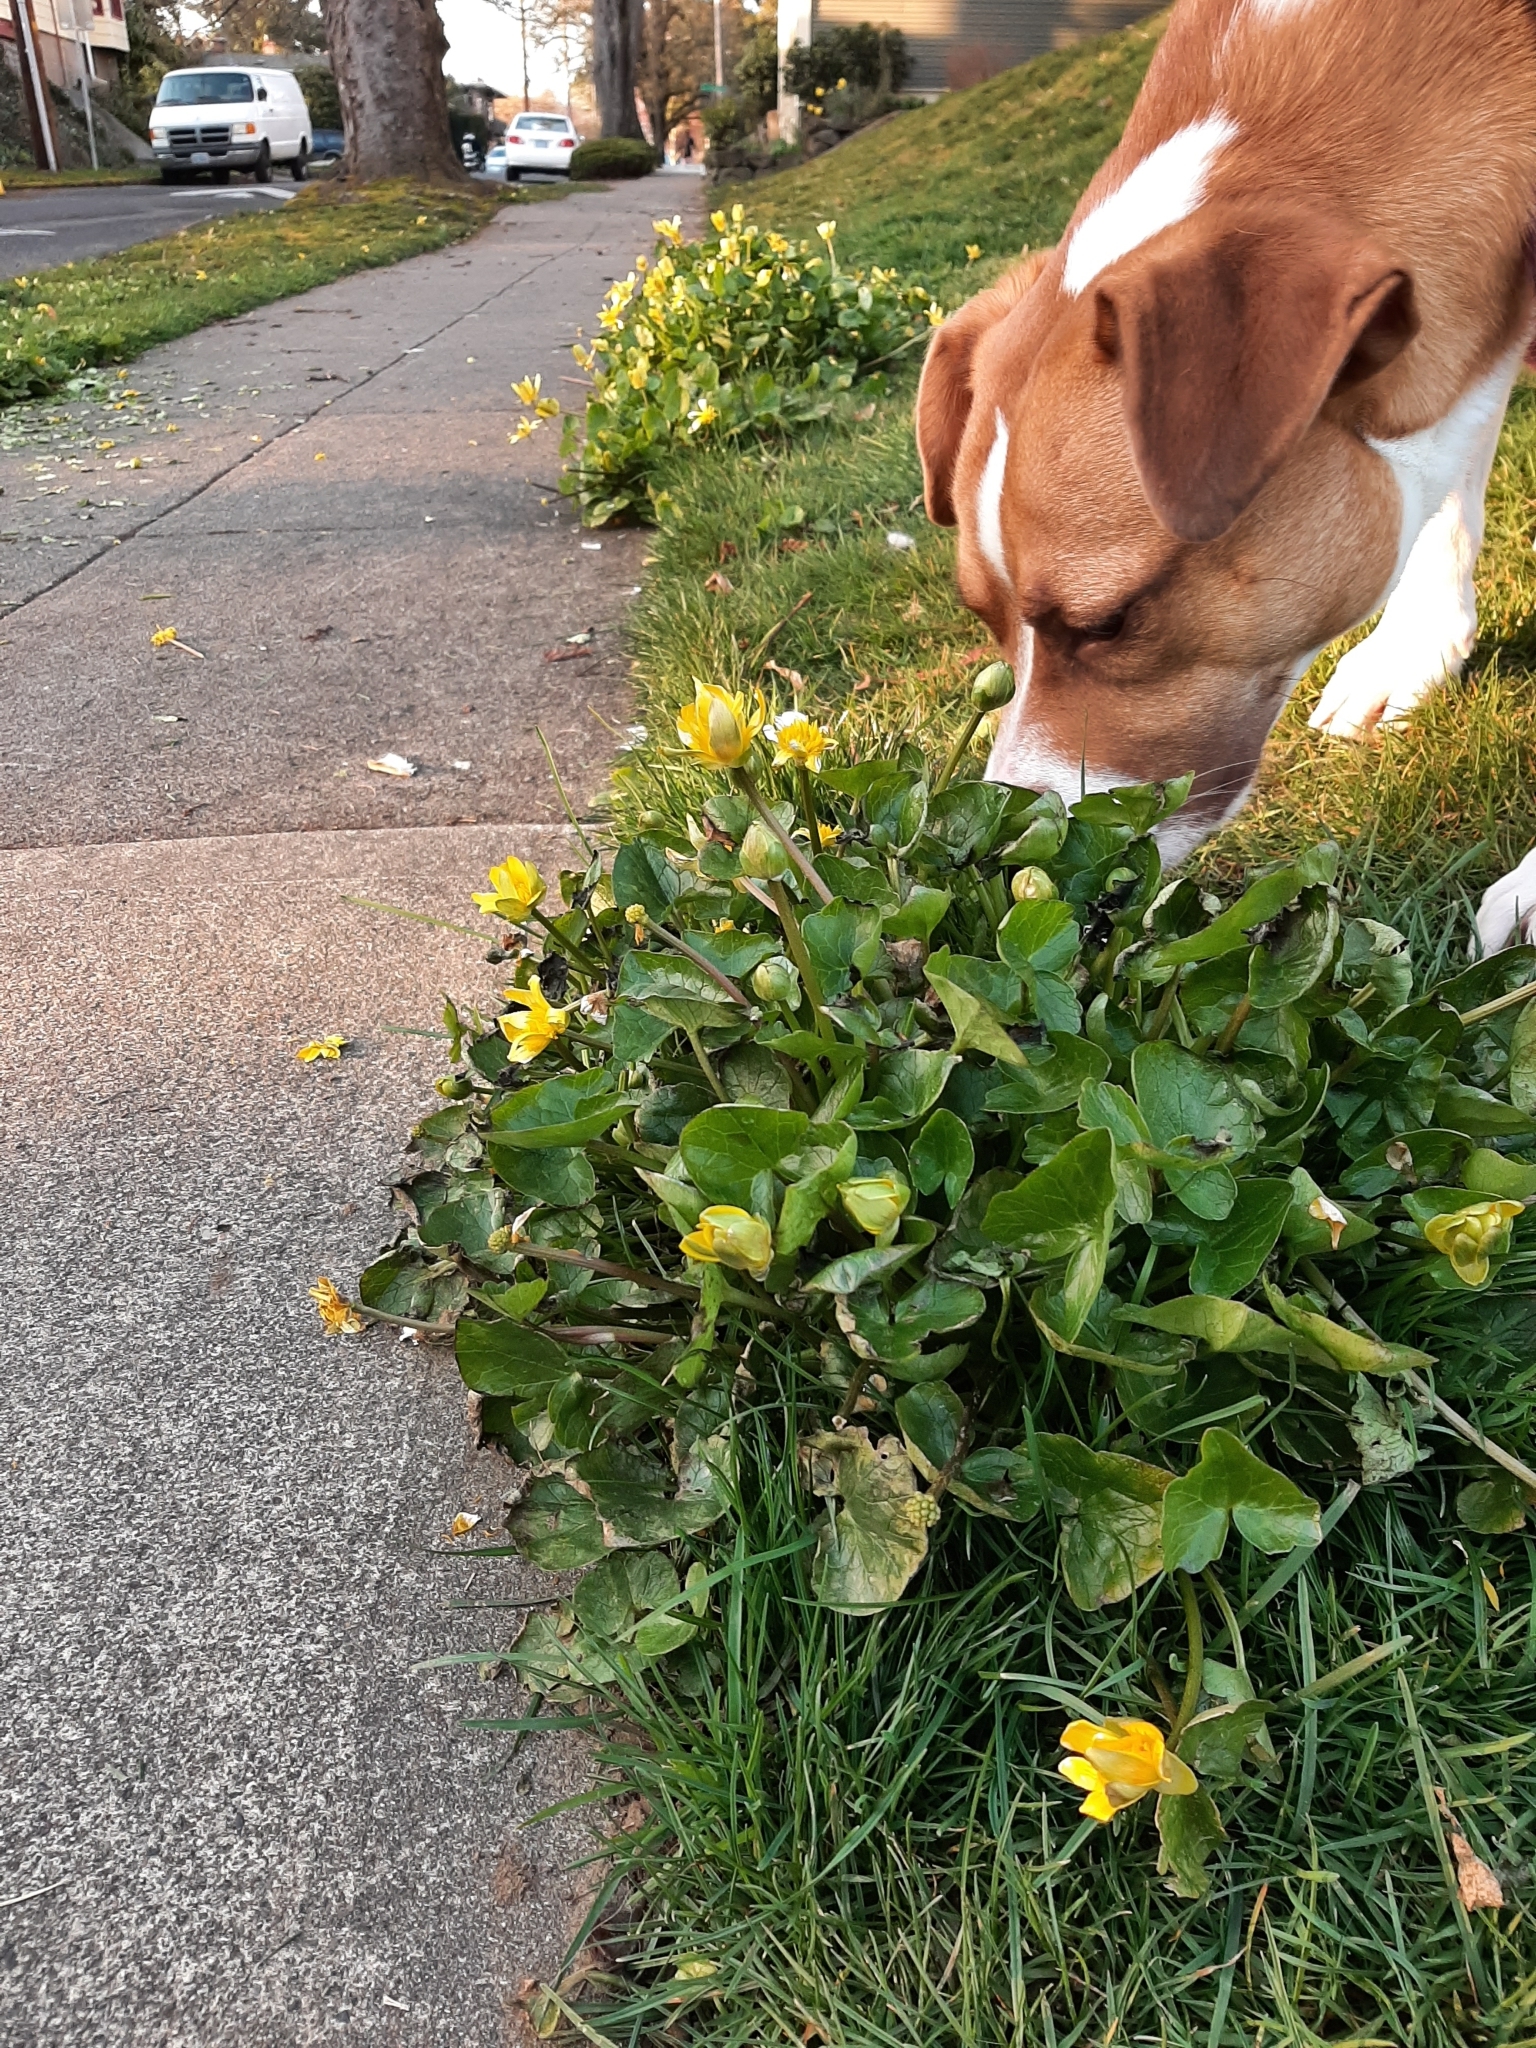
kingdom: Plantae
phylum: Tracheophyta
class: Magnoliopsida
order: Ranunculales
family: Ranunculaceae
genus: Ficaria
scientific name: Ficaria verna
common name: Lesser celandine
